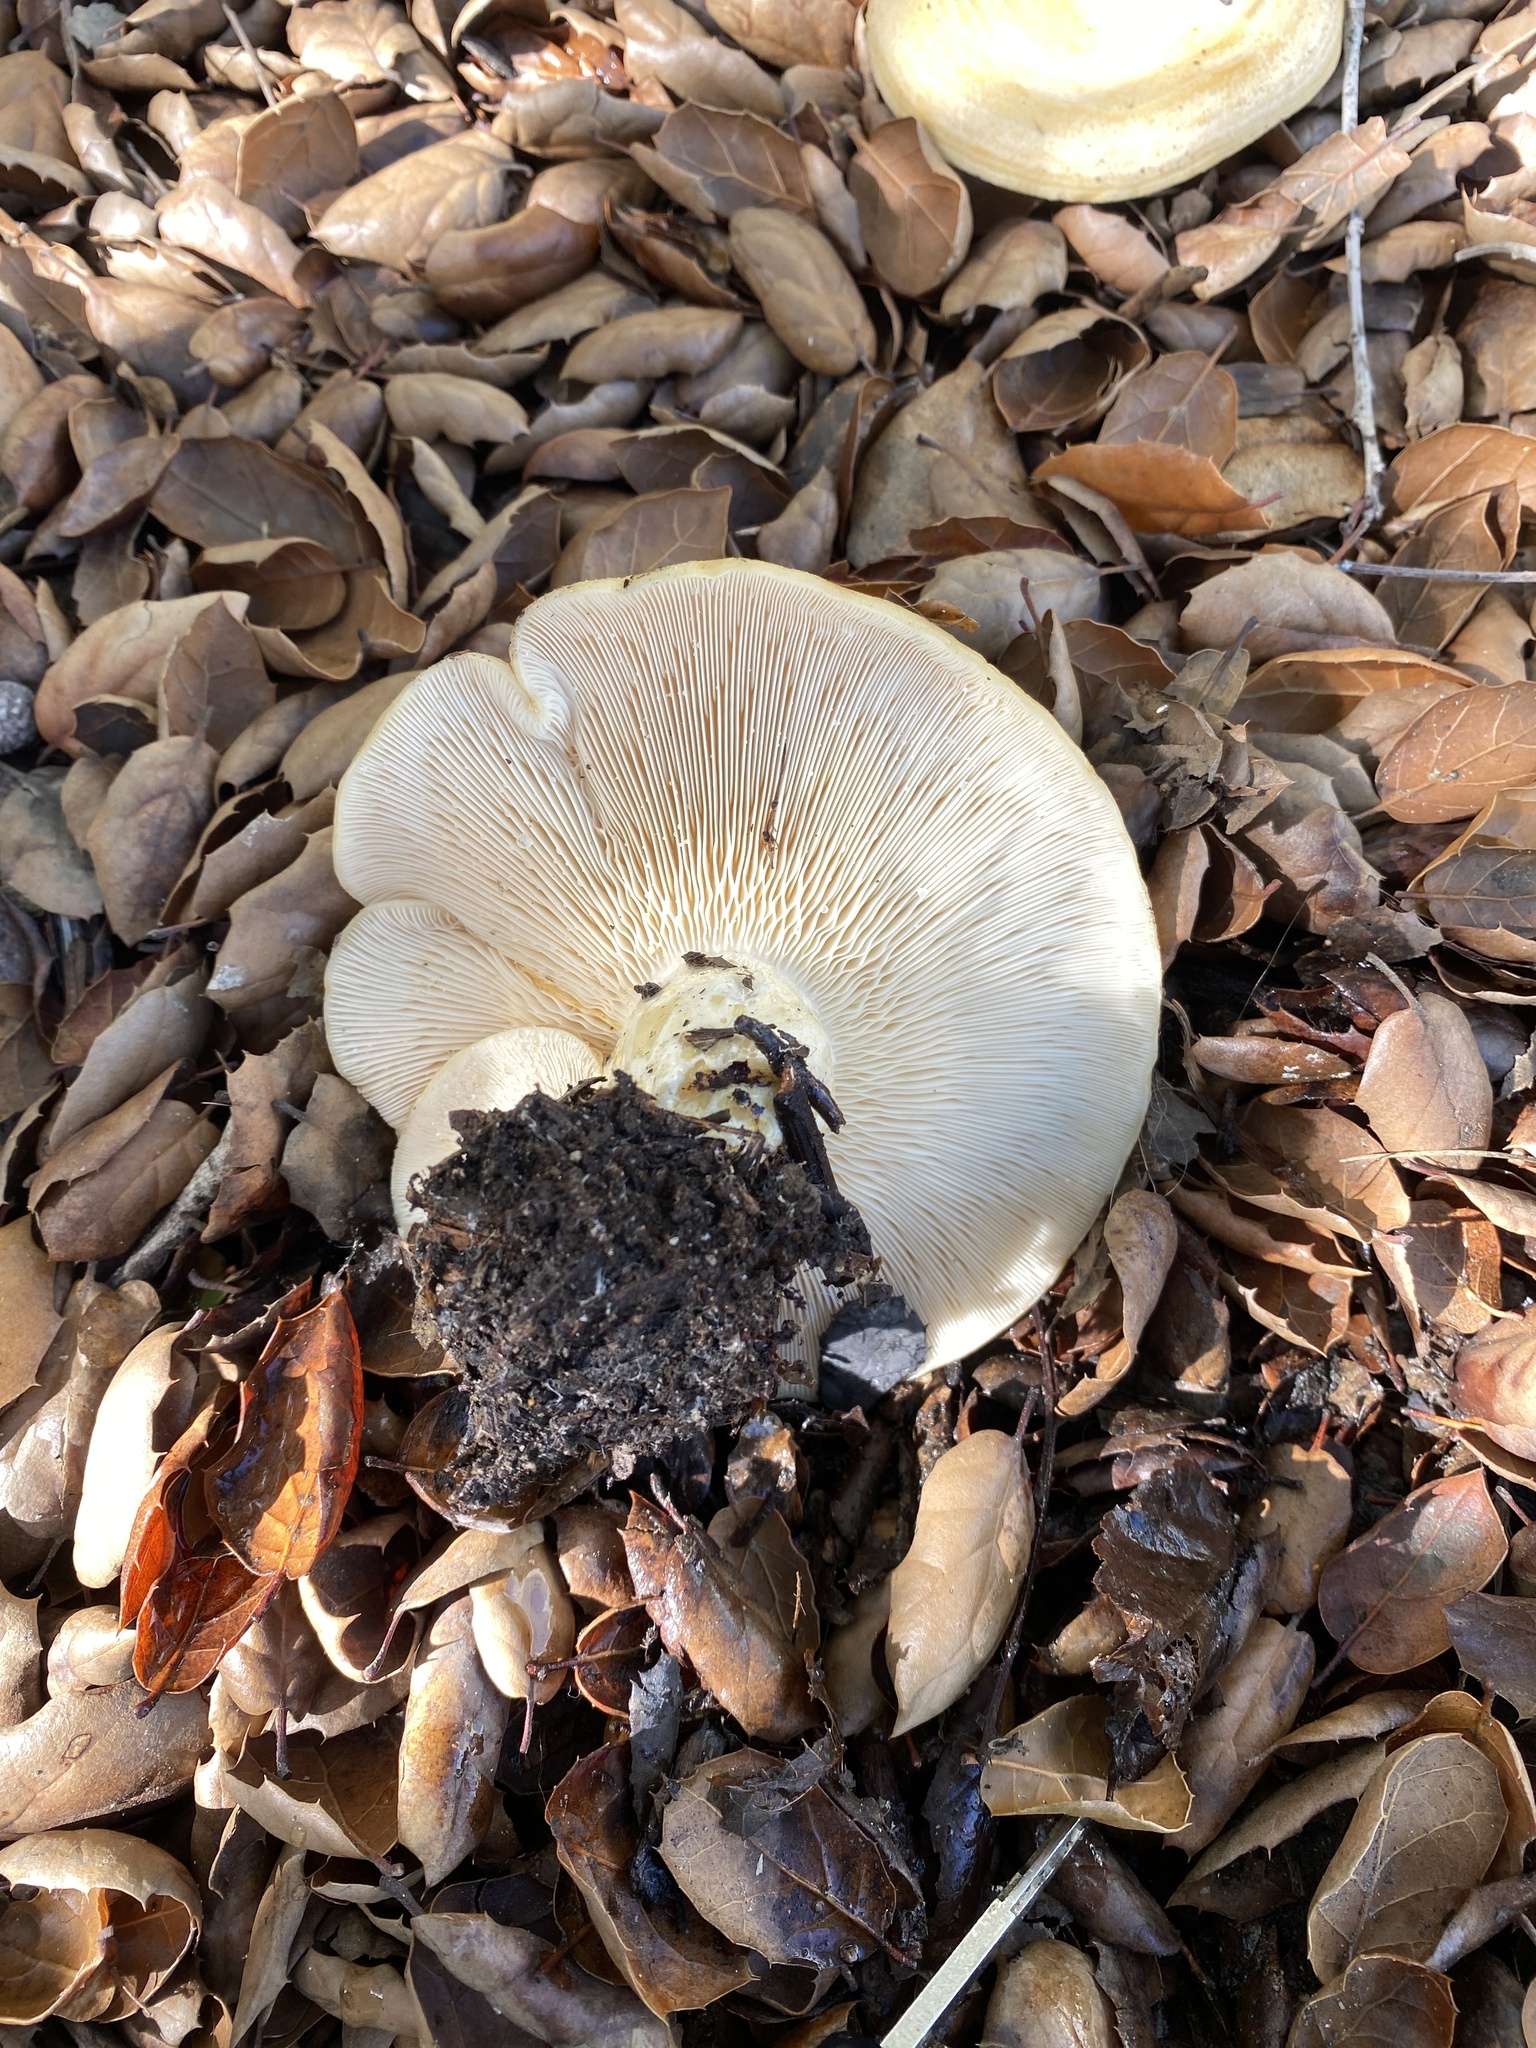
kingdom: Fungi
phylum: Basidiomycota
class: Agaricomycetes
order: Russulales
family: Russulaceae
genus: Lactarius
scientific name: Lactarius alnicola
